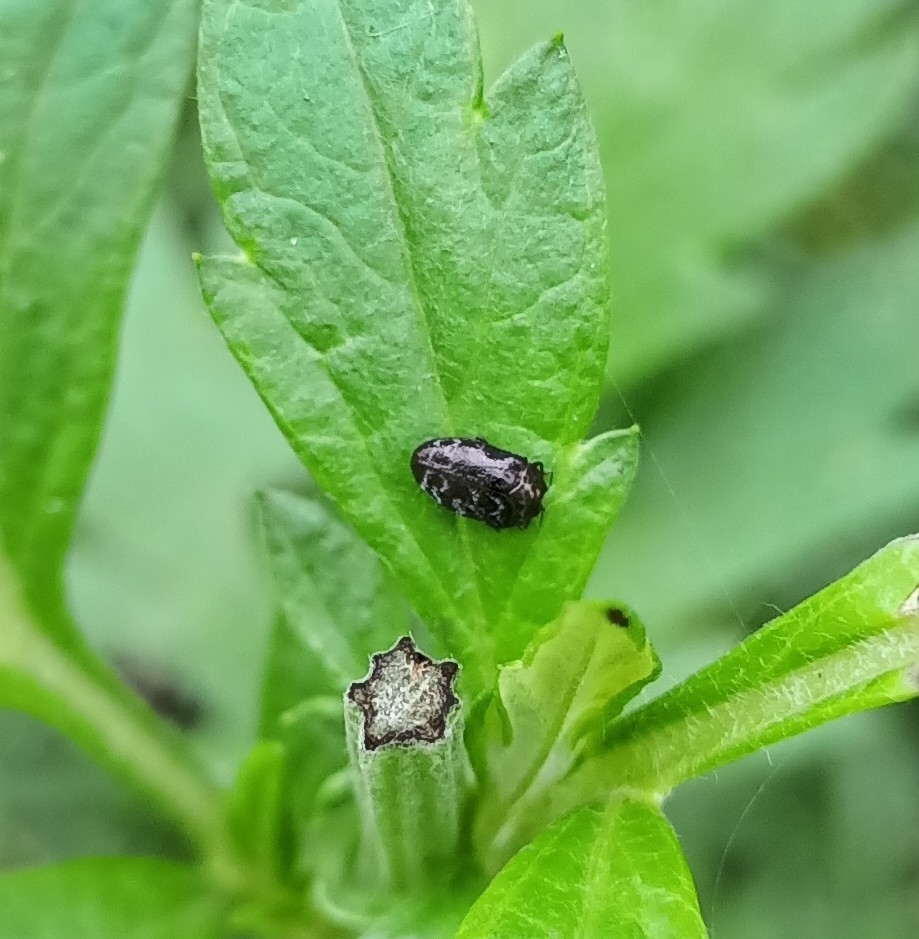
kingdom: Animalia
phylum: Arthropoda
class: Insecta
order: Coleoptera
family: Buprestidae
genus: Trachys
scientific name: Trachys minutus
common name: Metallic wood-boring beetle
